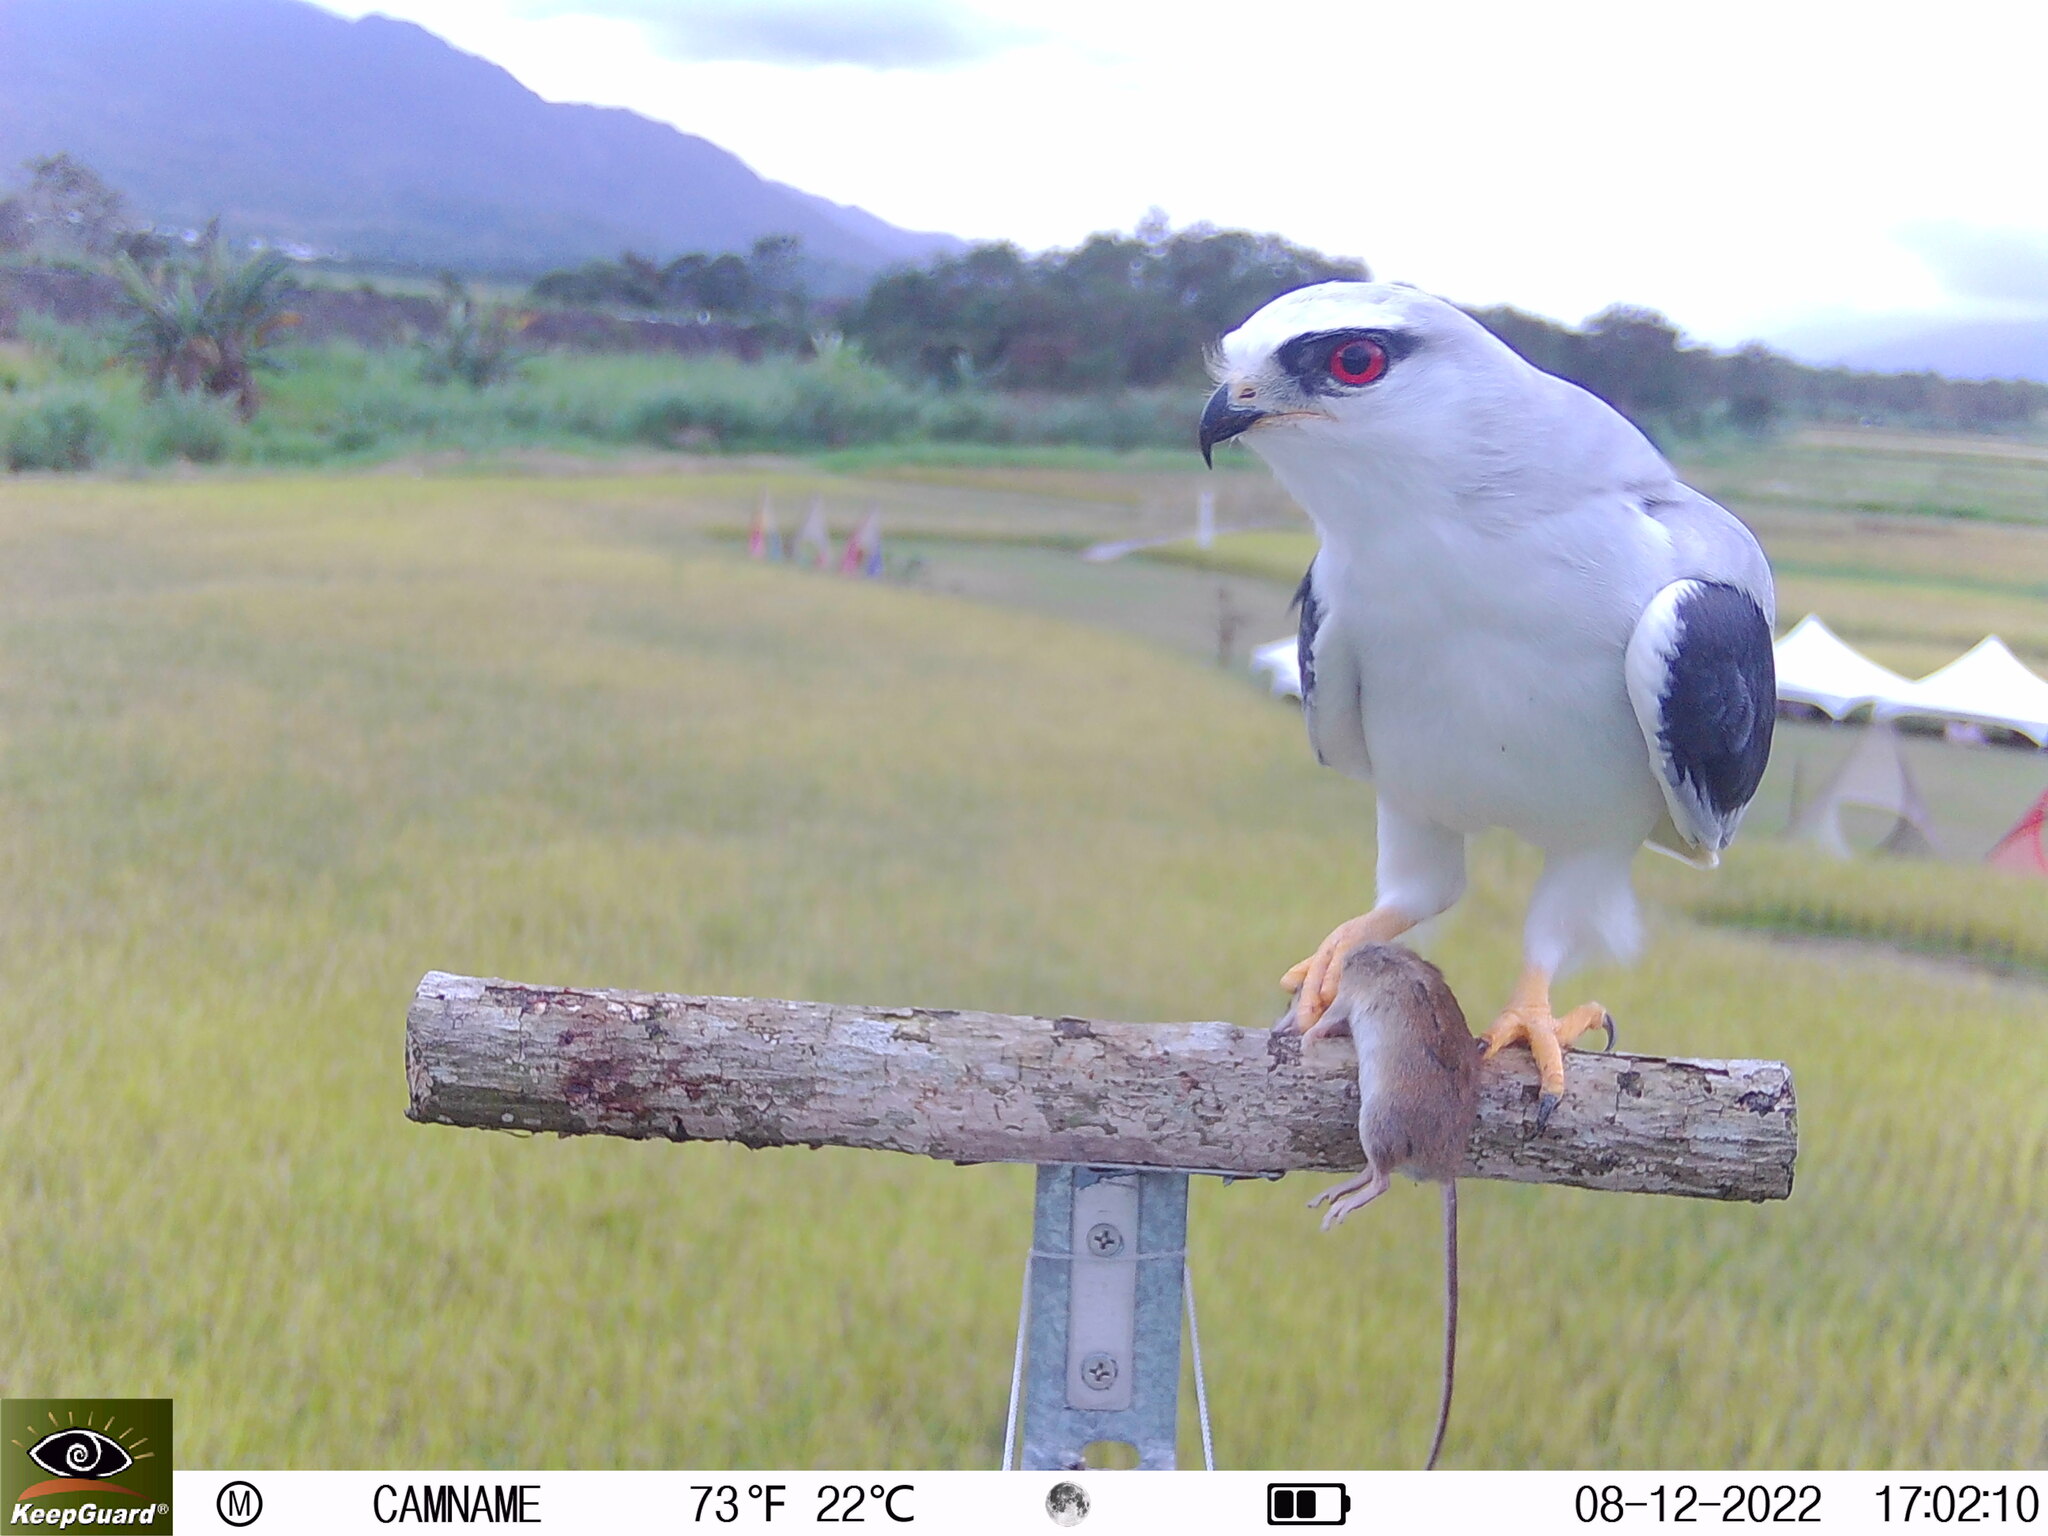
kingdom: Animalia
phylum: Chordata
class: Aves
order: Accipitriformes
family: Accipitridae
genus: Elanus
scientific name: Elanus caeruleus
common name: Black-winged kite
